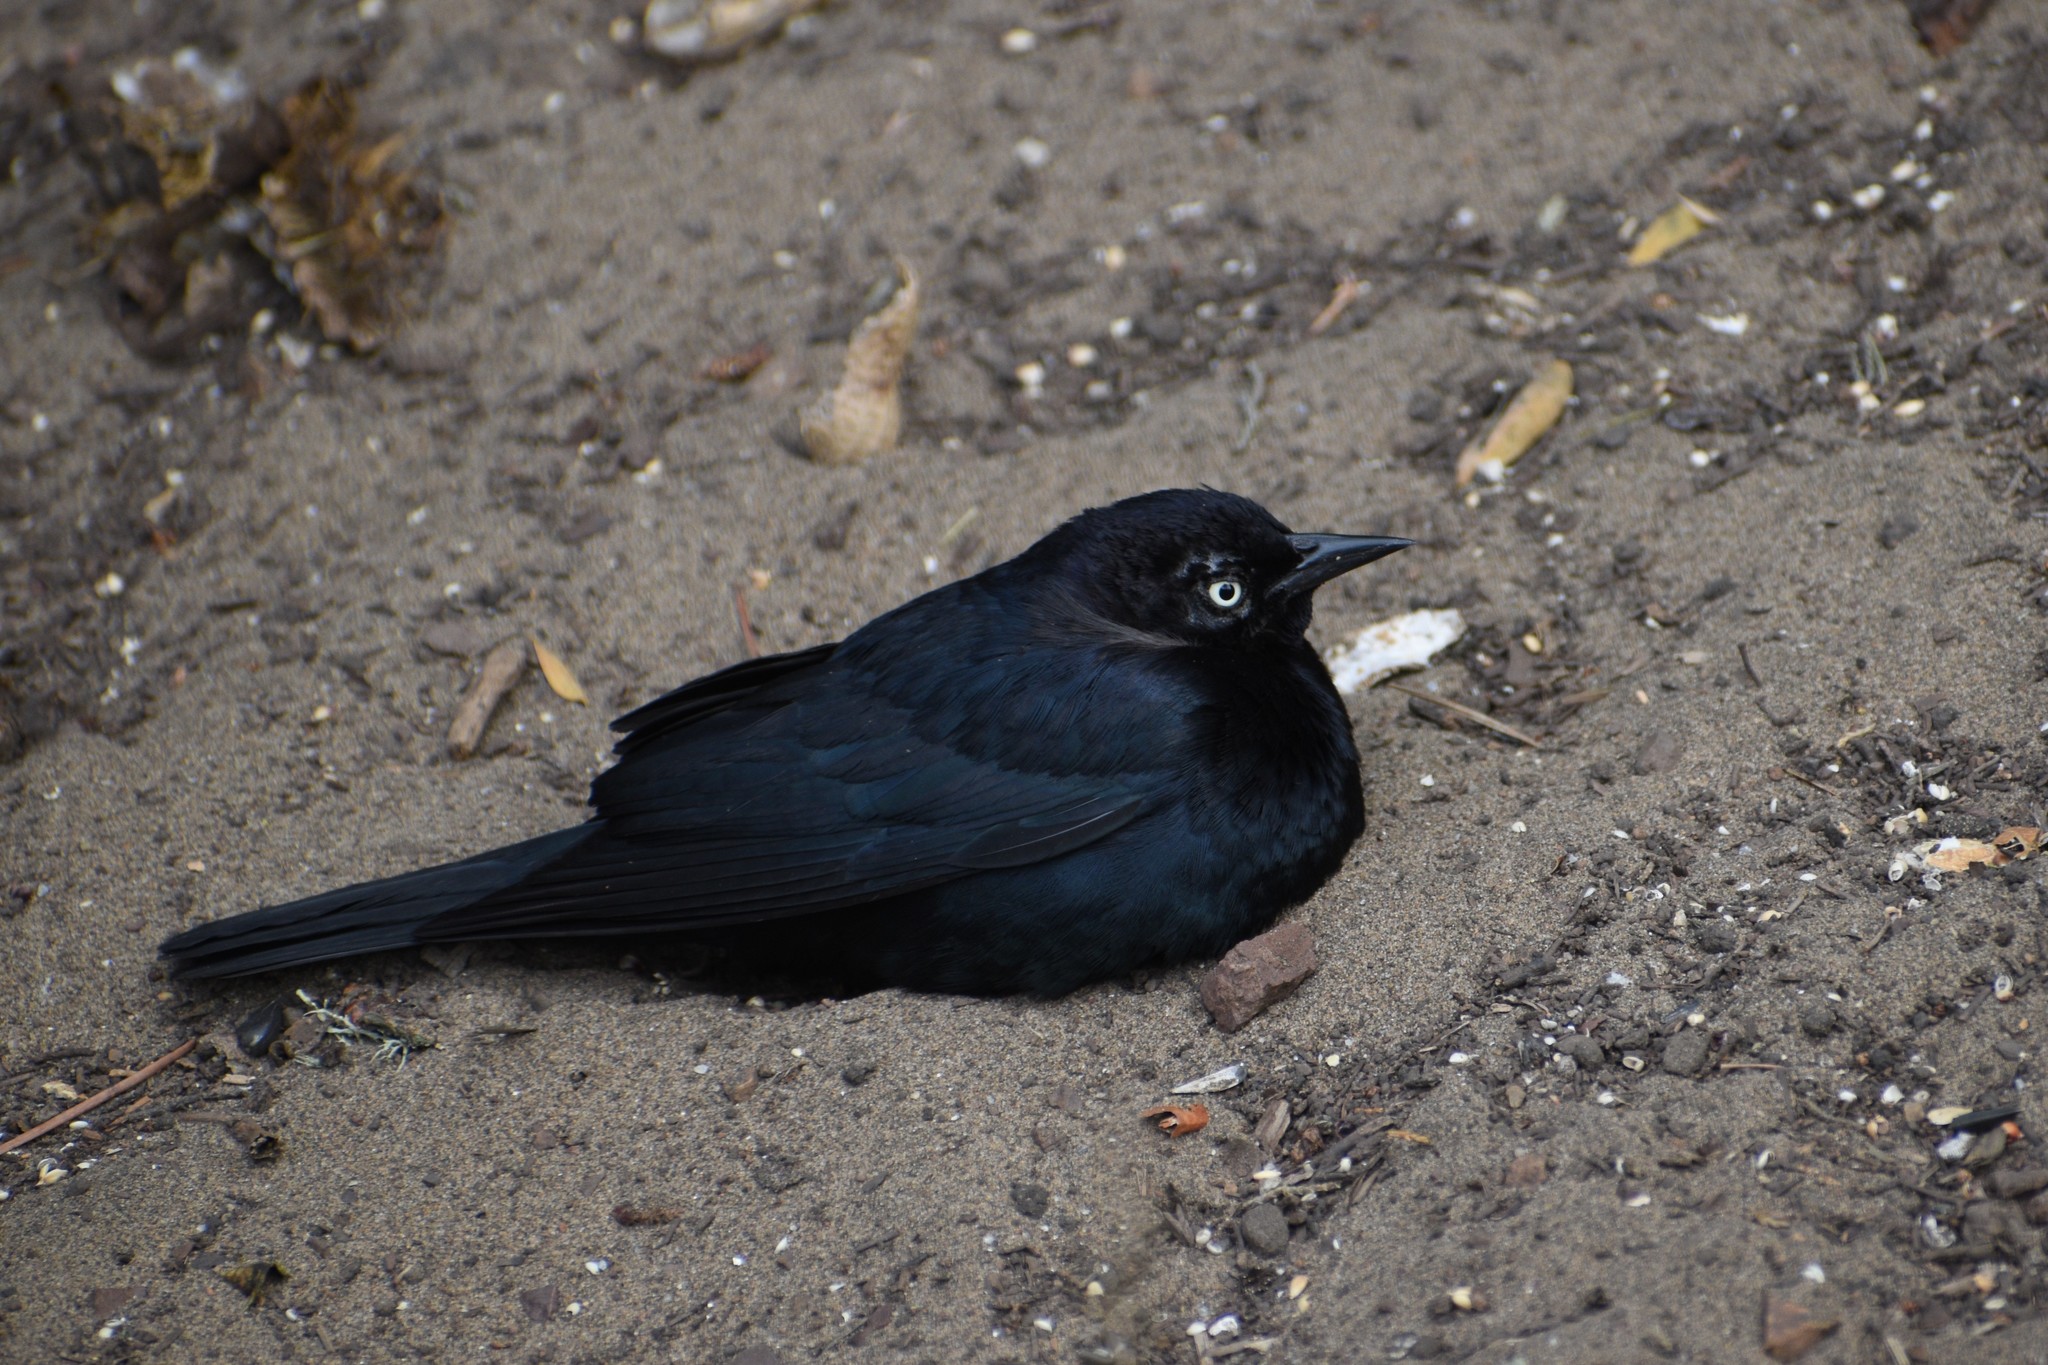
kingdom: Animalia
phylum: Chordata
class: Aves
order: Passeriformes
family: Icteridae
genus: Euphagus
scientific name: Euphagus cyanocephalus
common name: Brewer's blackbird
